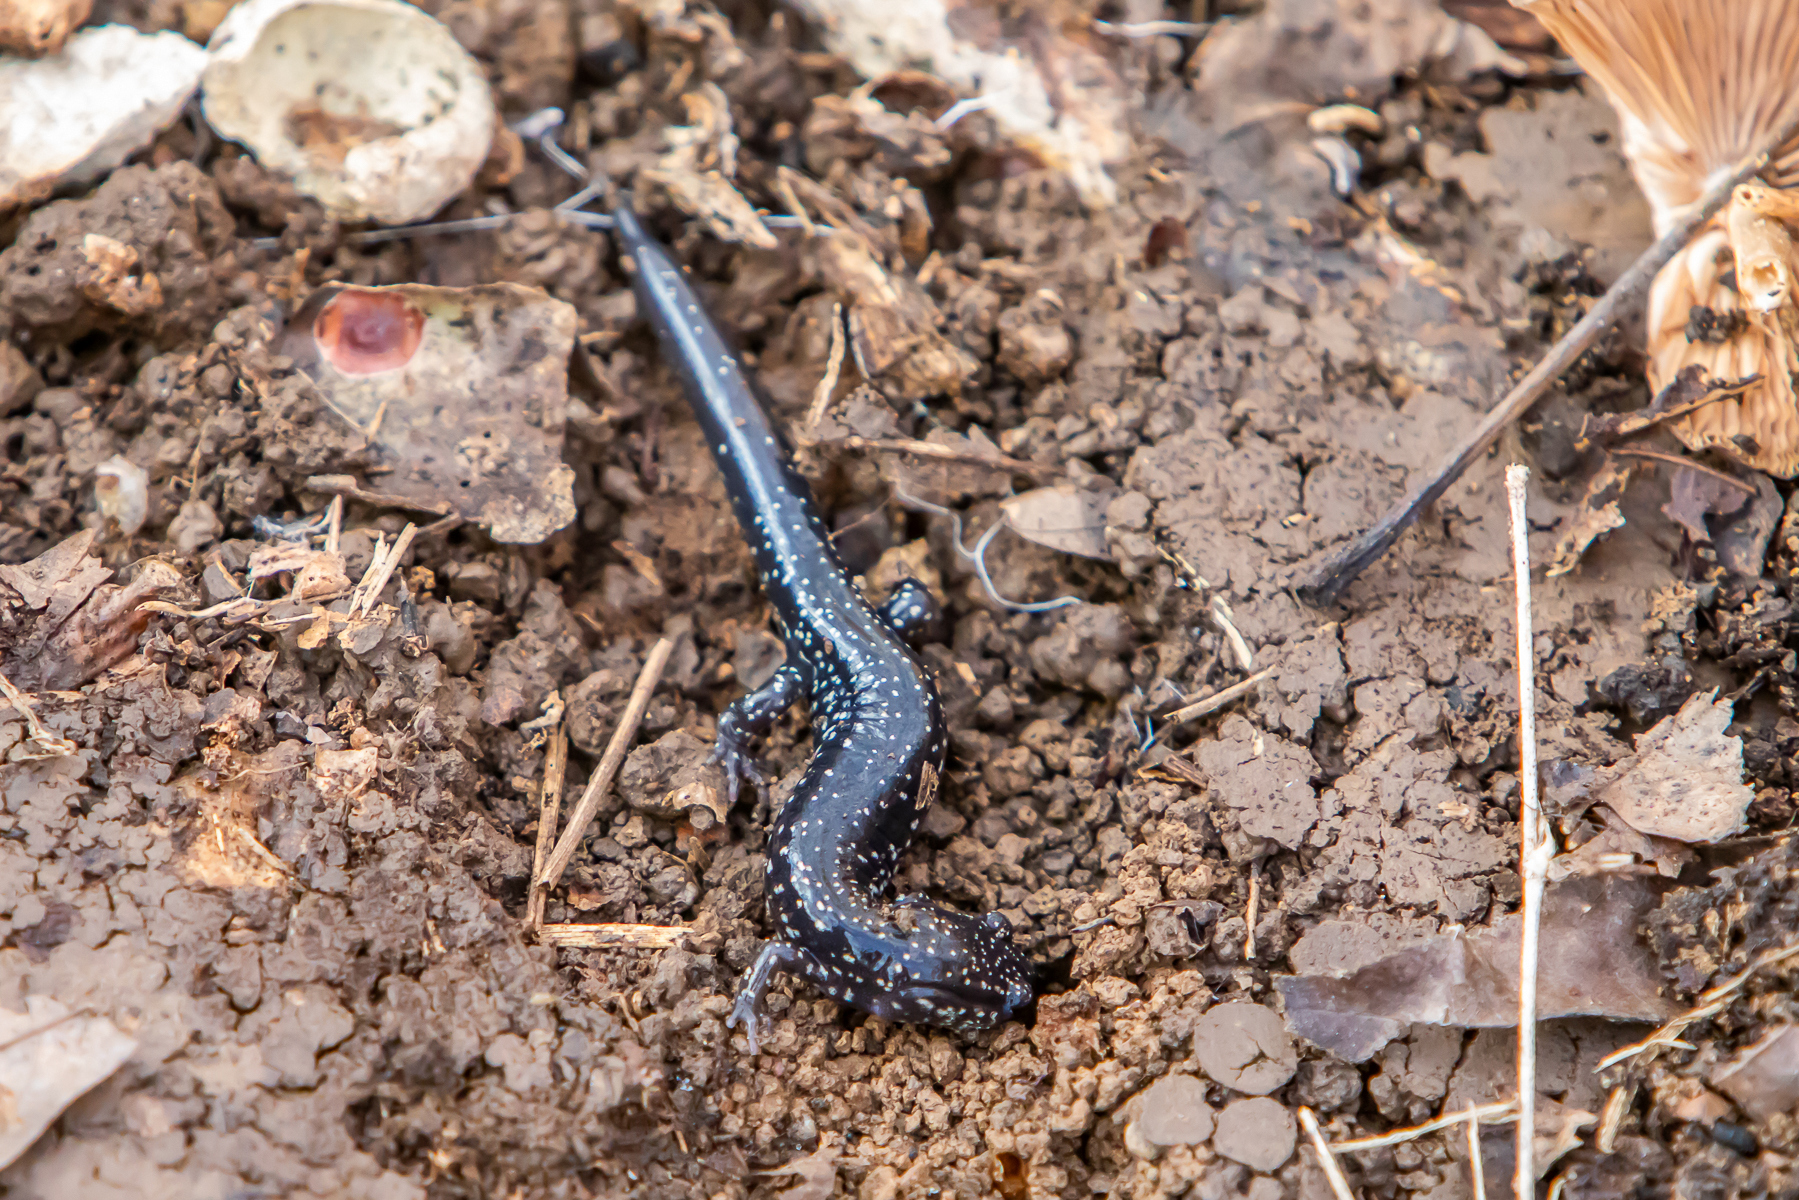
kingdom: Animalia
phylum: Chordata
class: Amphibia
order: Caudata
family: Plethodontidae
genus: Plethodon
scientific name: Plethodon glutinosus
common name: Northern slimy salamander
